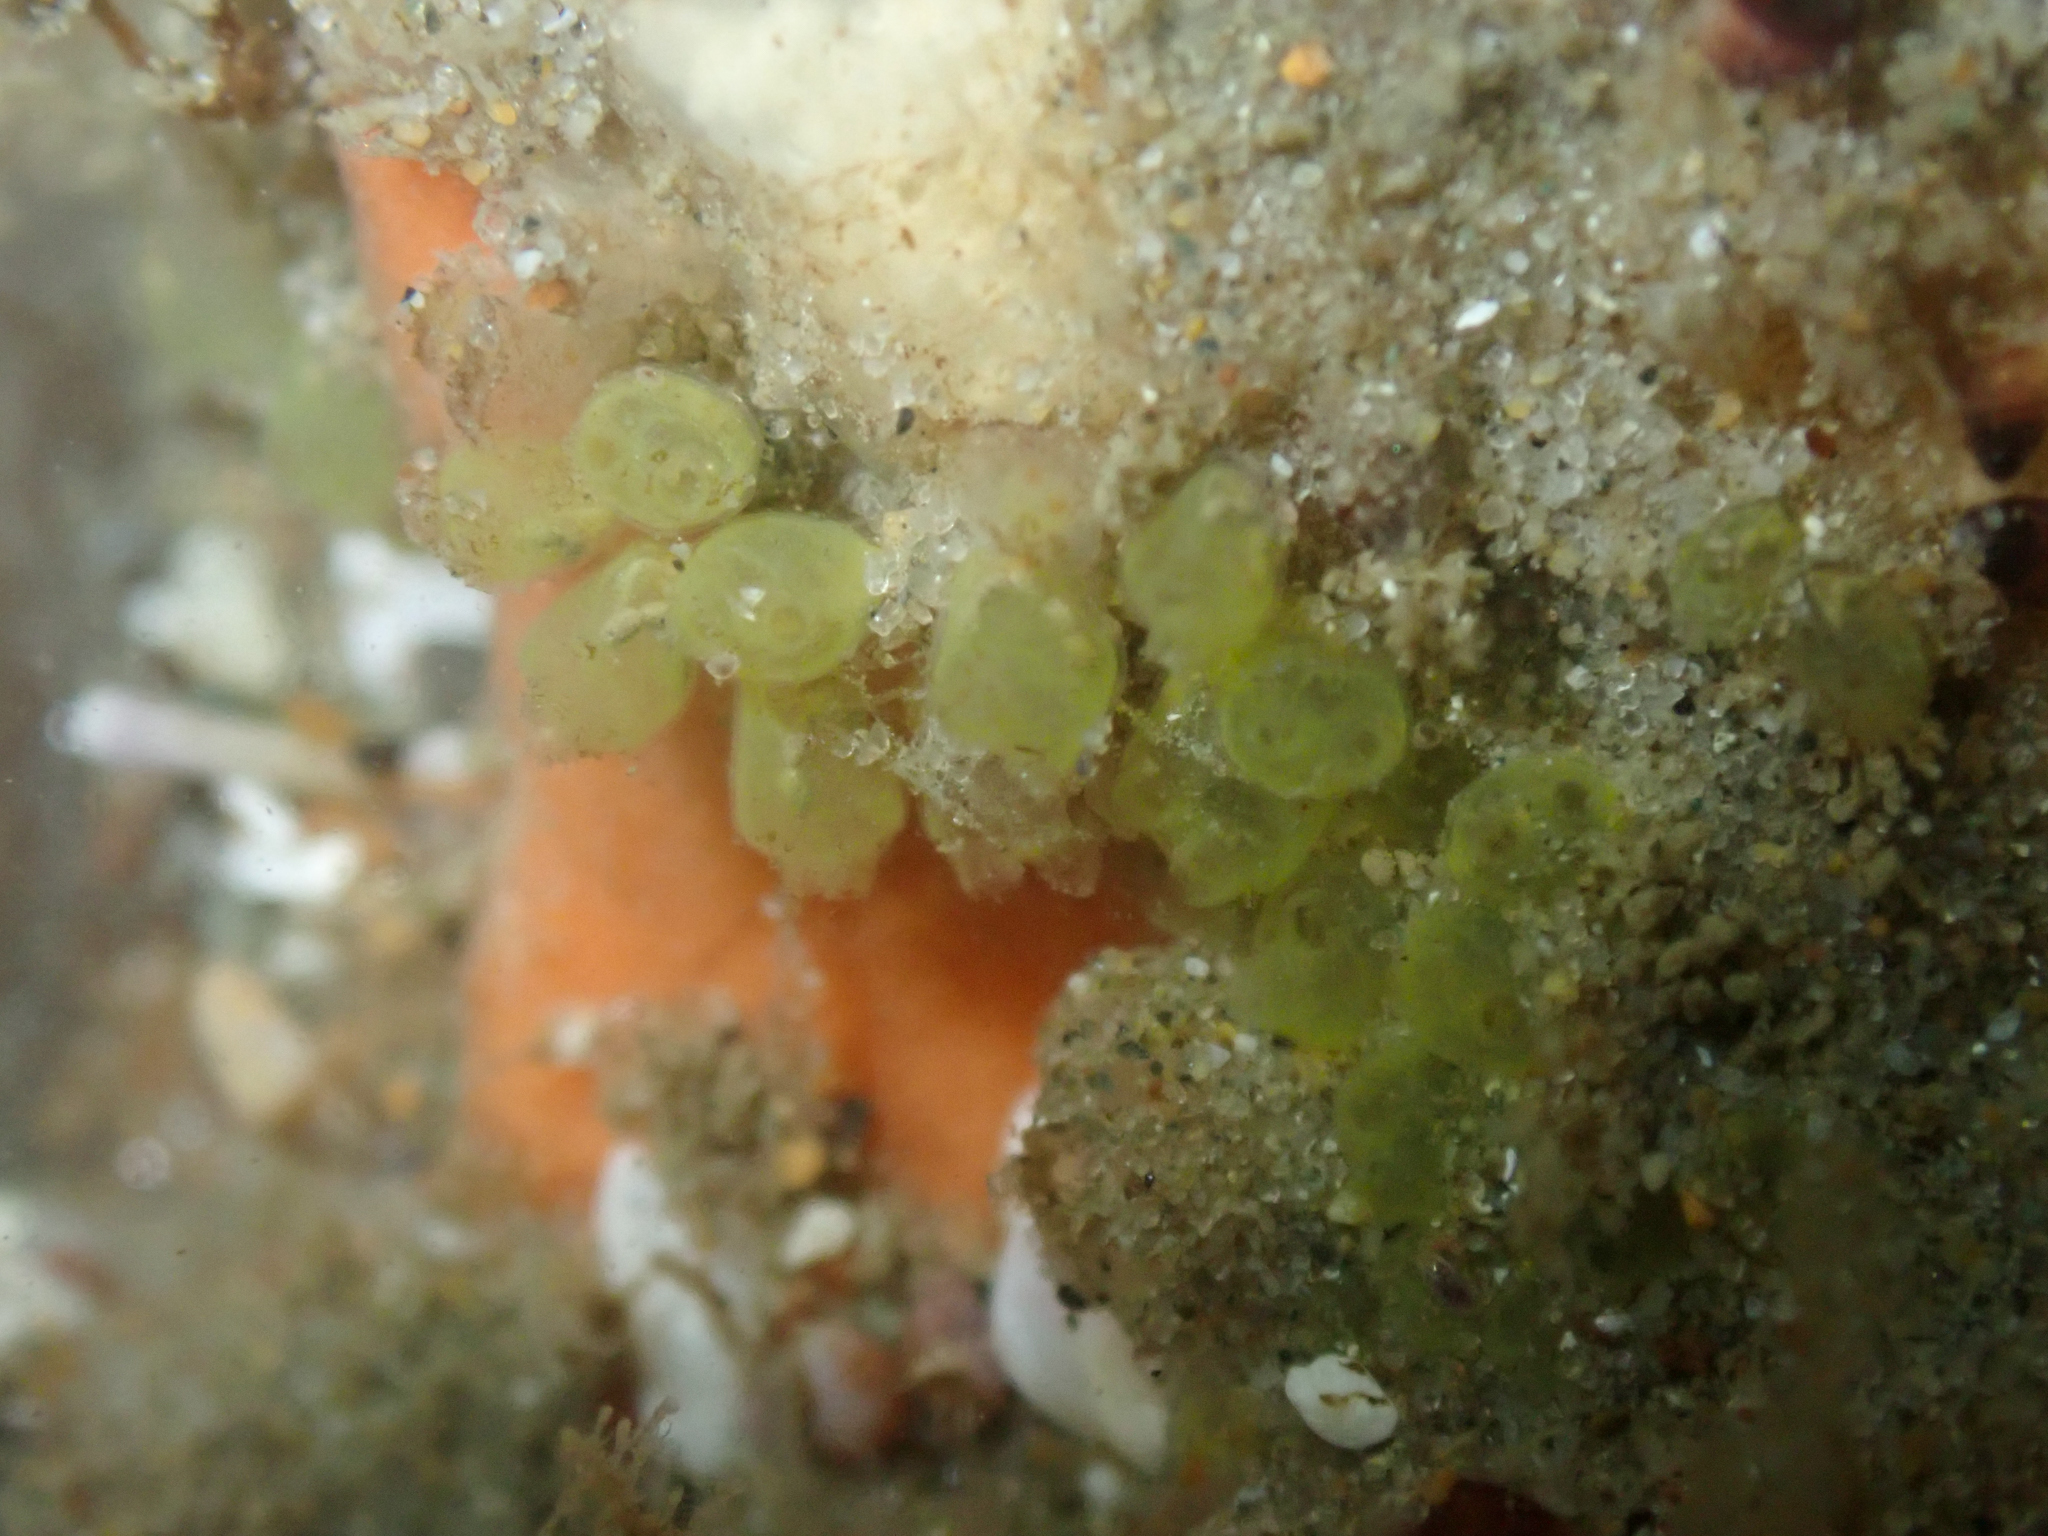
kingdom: Animalia
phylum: Chordata
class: Ascidiacea
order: Phlebobranchia
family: Perophoridae
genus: Perophora
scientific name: Perophora annectens
